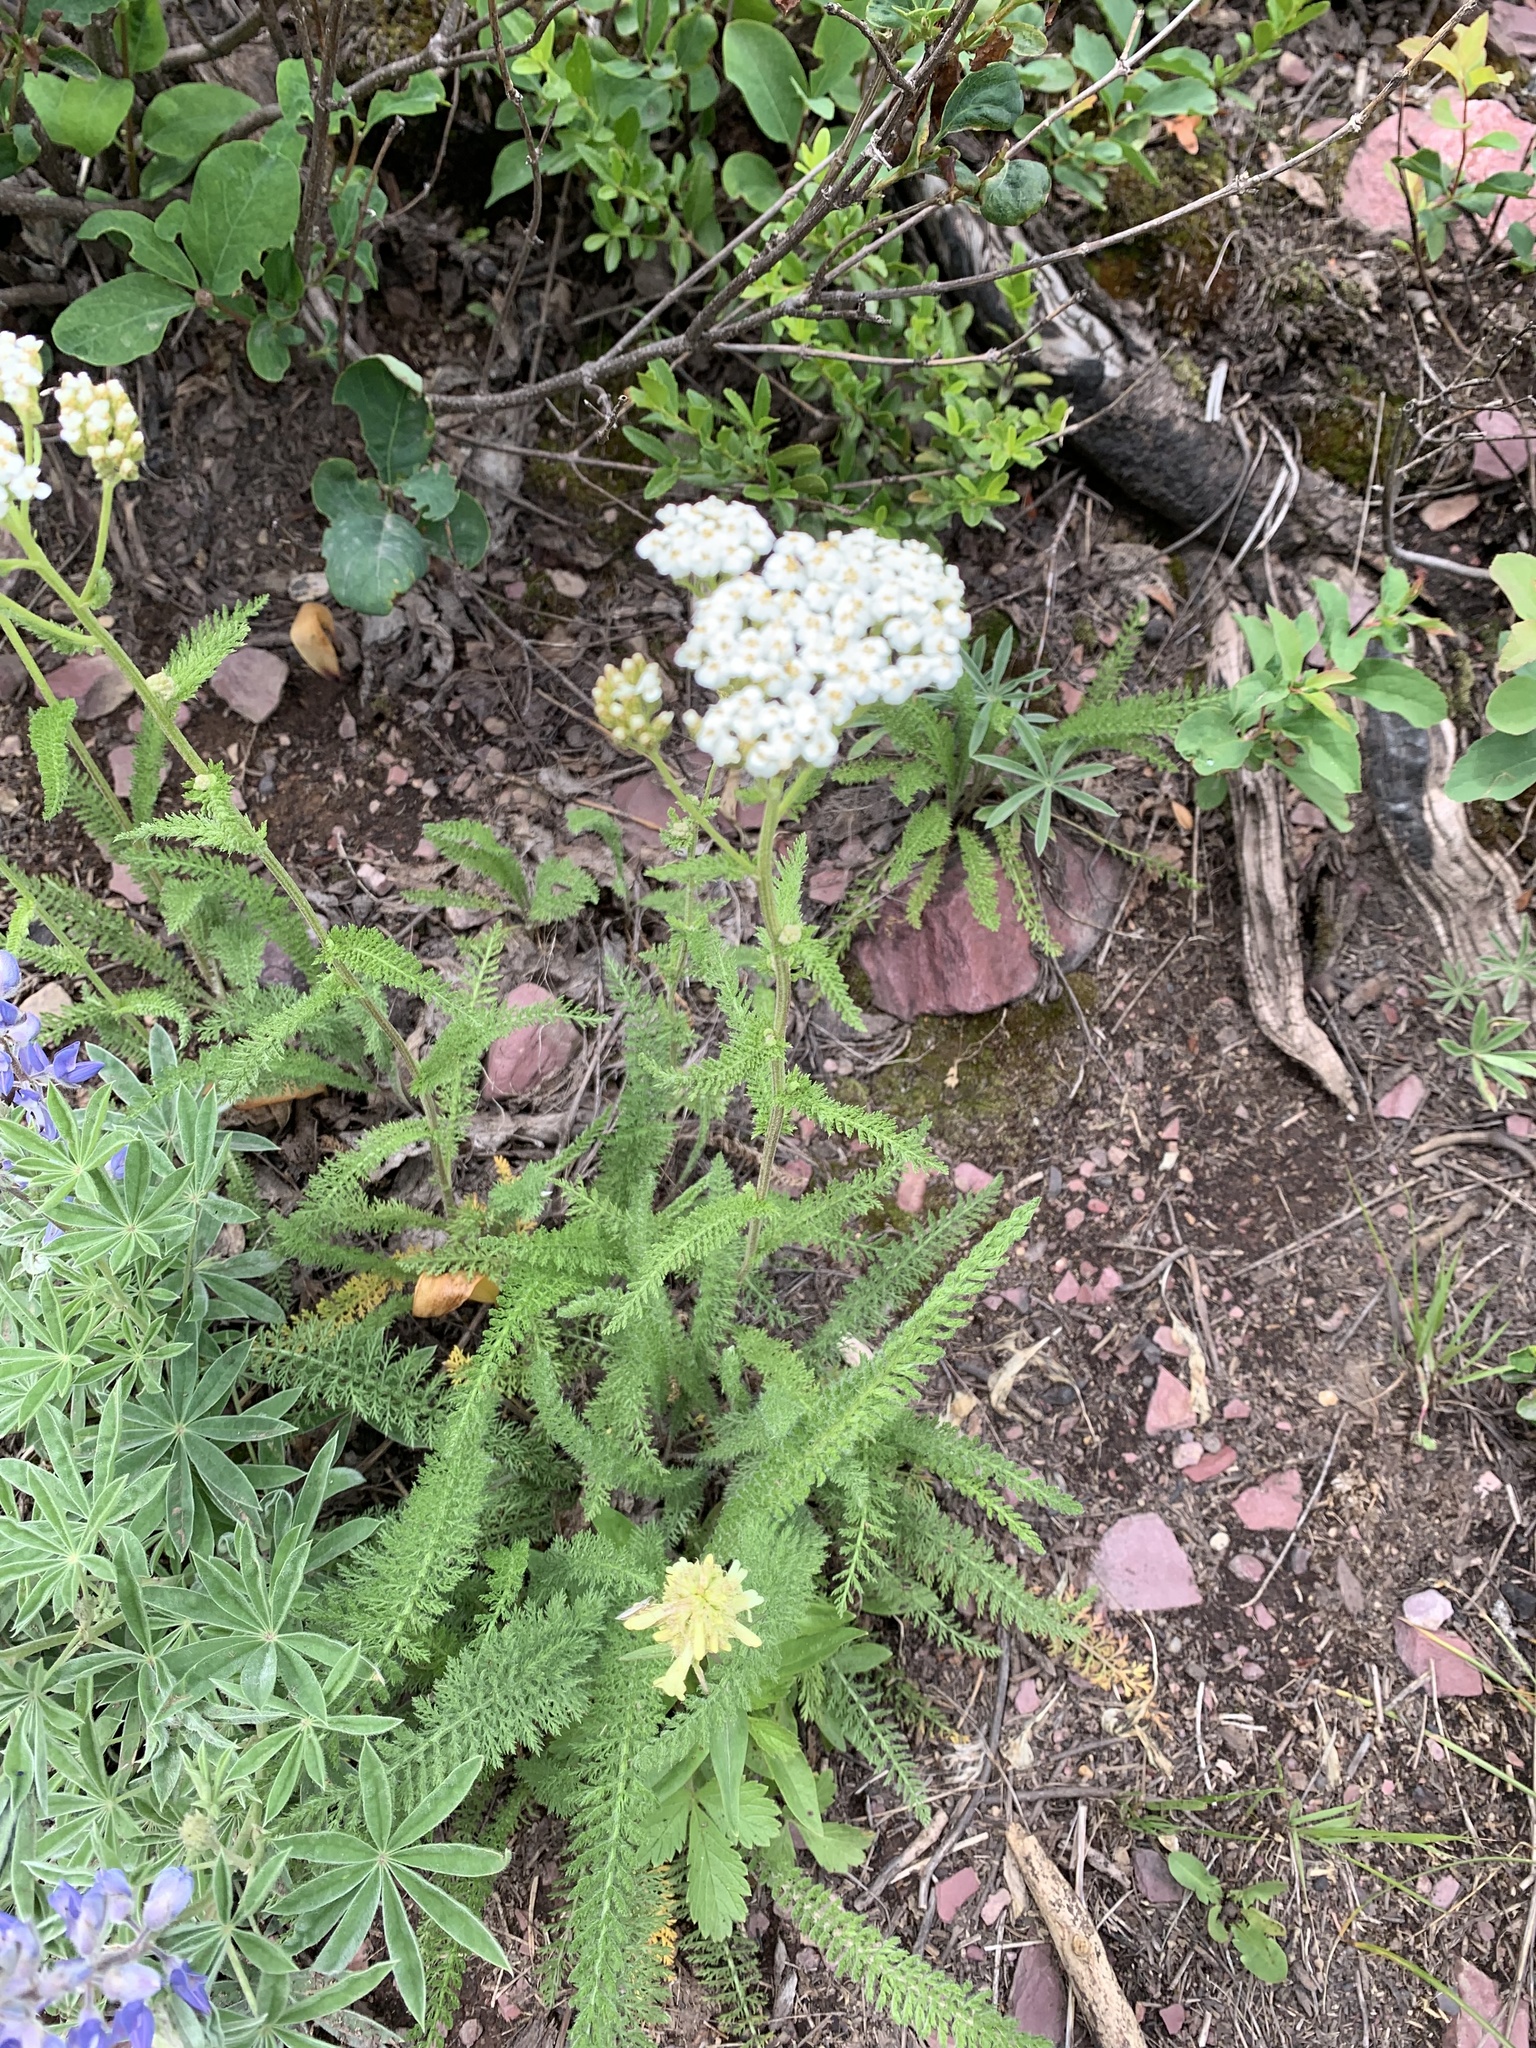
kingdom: Plantae
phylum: Tracheophyta
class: Magnoliopsida
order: Asterales
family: Asteraceae
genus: Achillea
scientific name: Achillea millefolium
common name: Yarrow
